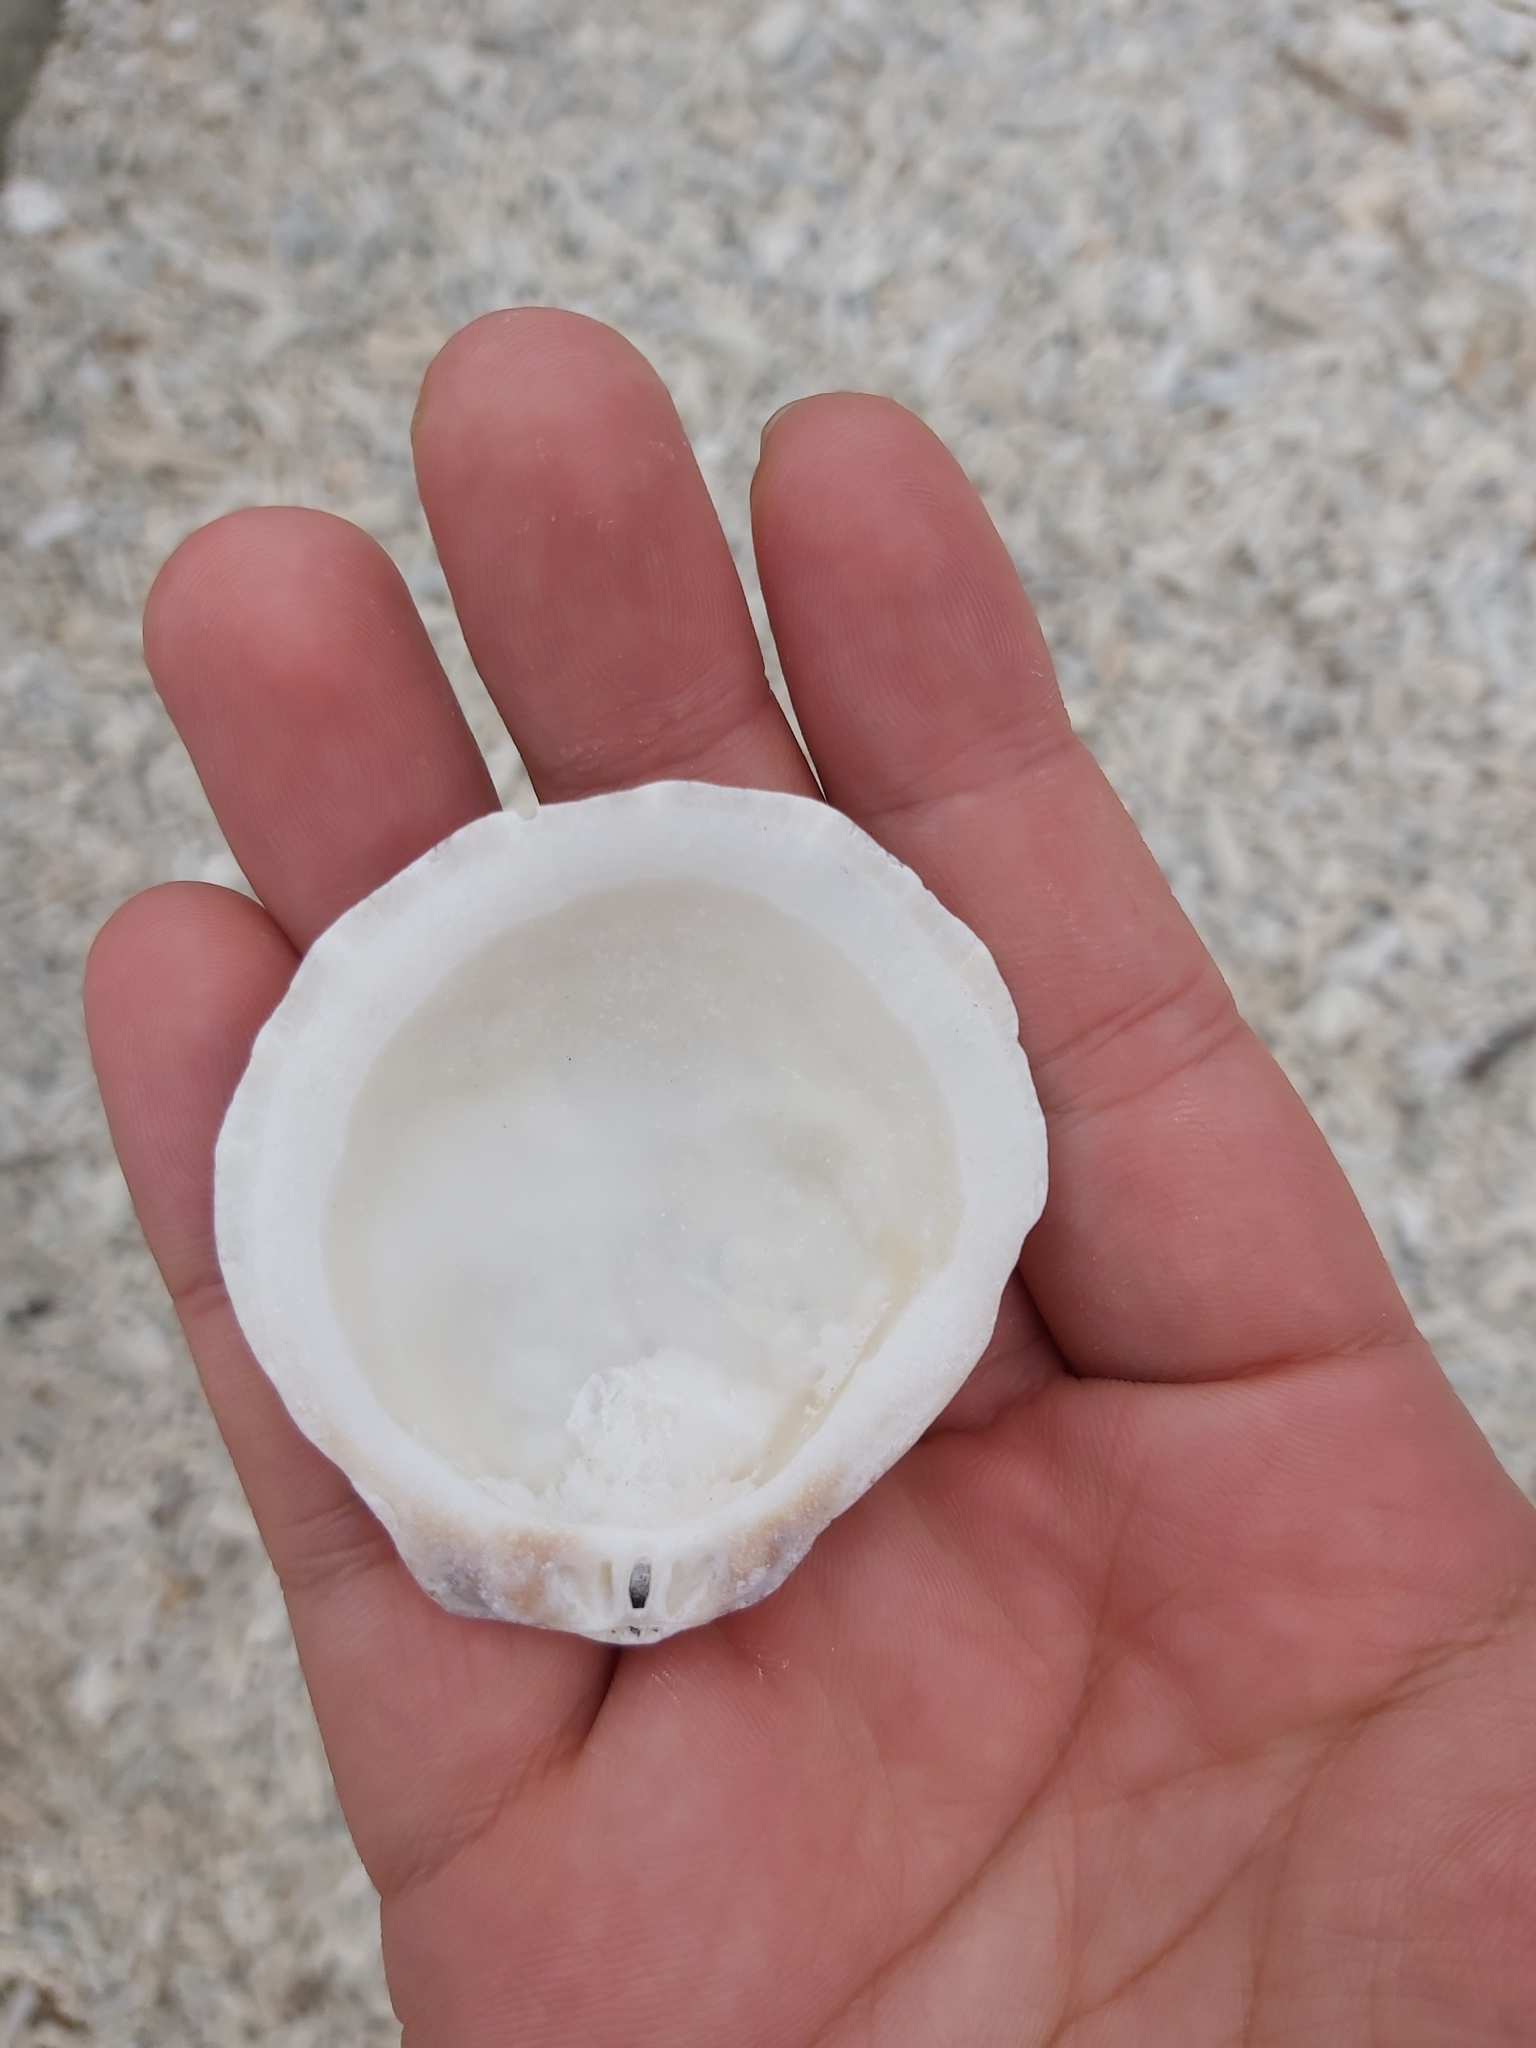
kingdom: Animalia
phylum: Mollusca
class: Bivalvia
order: Pectinida
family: Spondylidae
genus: Spondylus
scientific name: Spondylus nicobaricus
